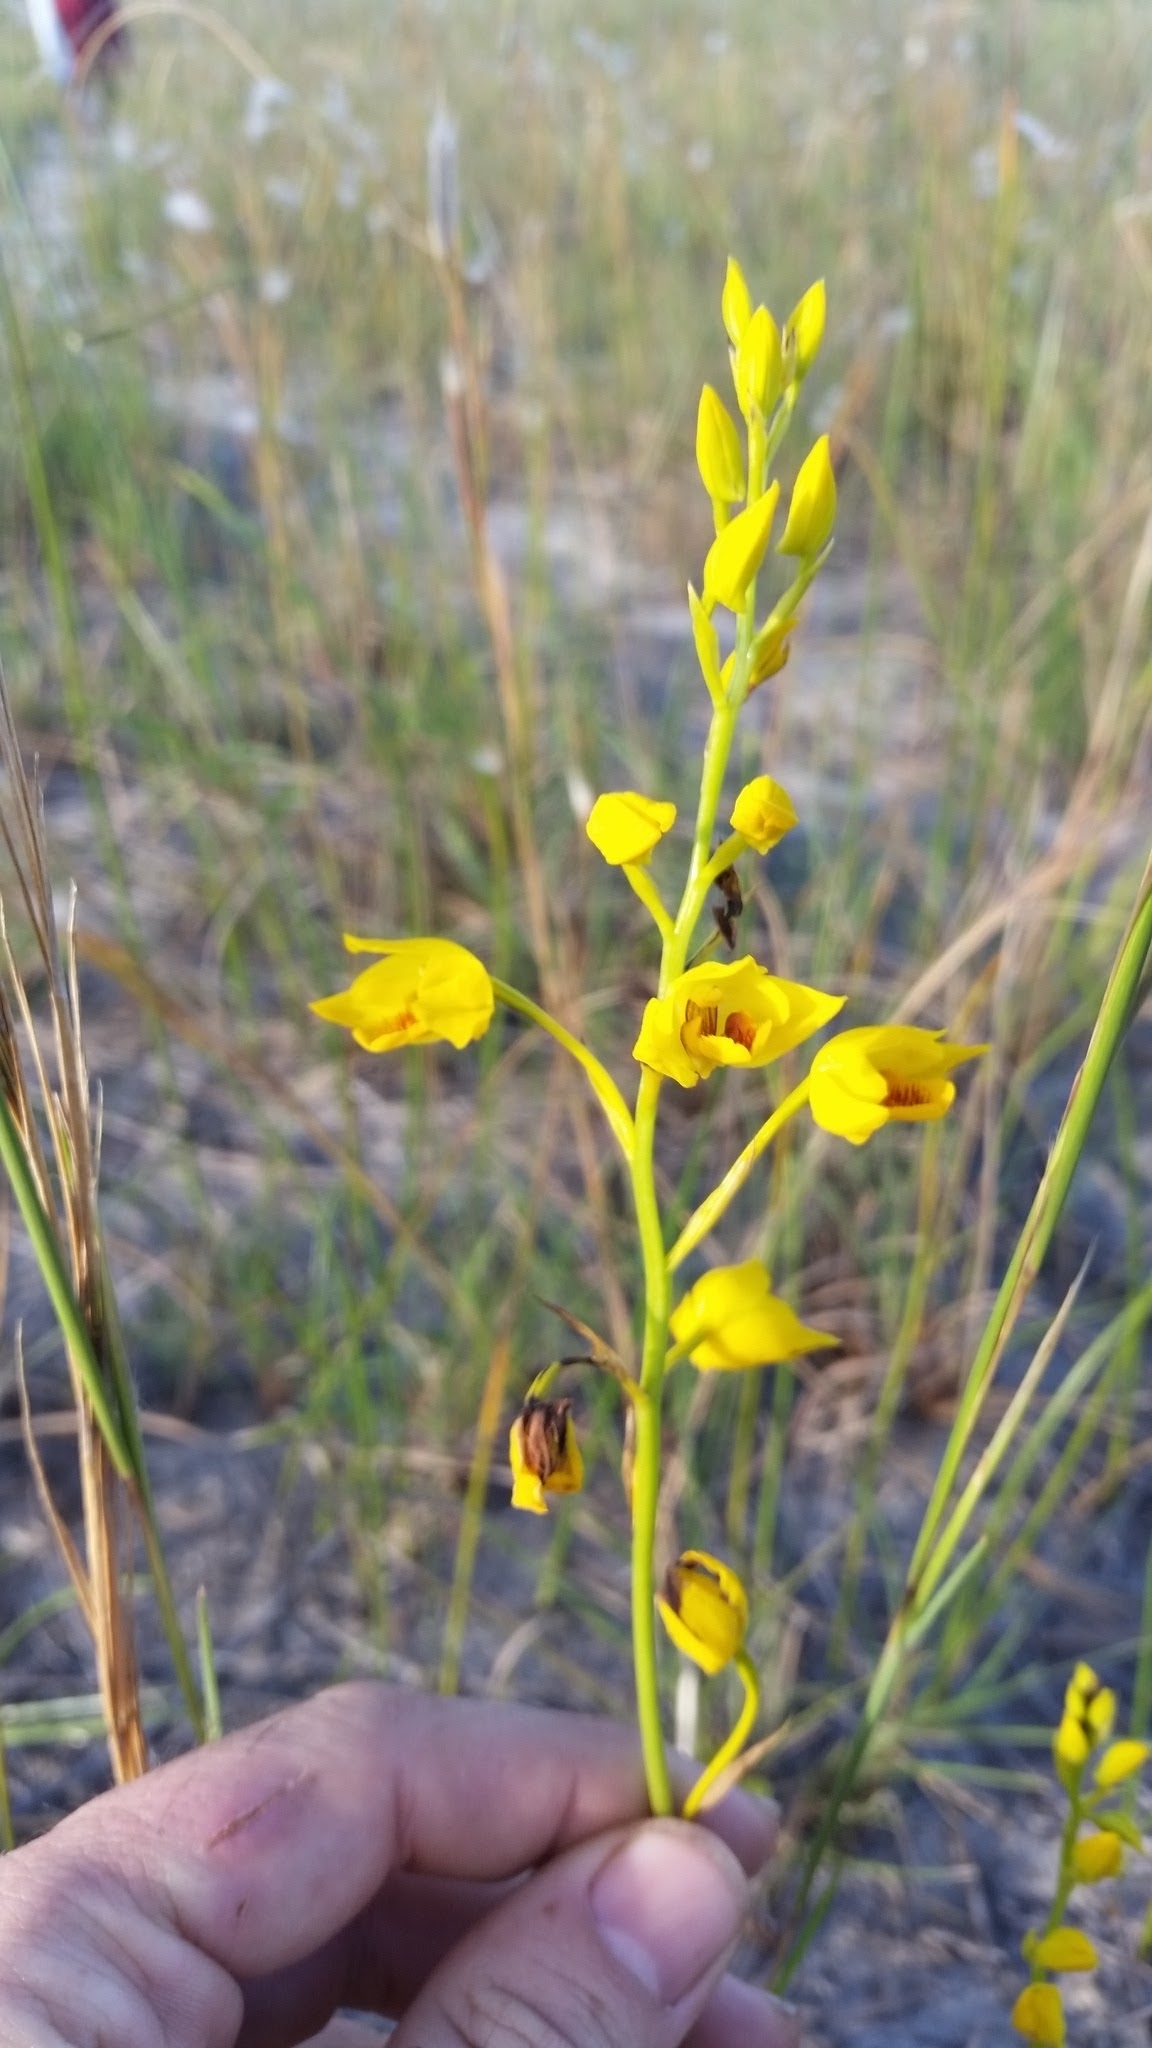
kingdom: Plantae
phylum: Tracheophyta
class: Liliopsida
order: Asparagales
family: Orchidaceae
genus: Eulophia
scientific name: Eulophia odontoglossa
